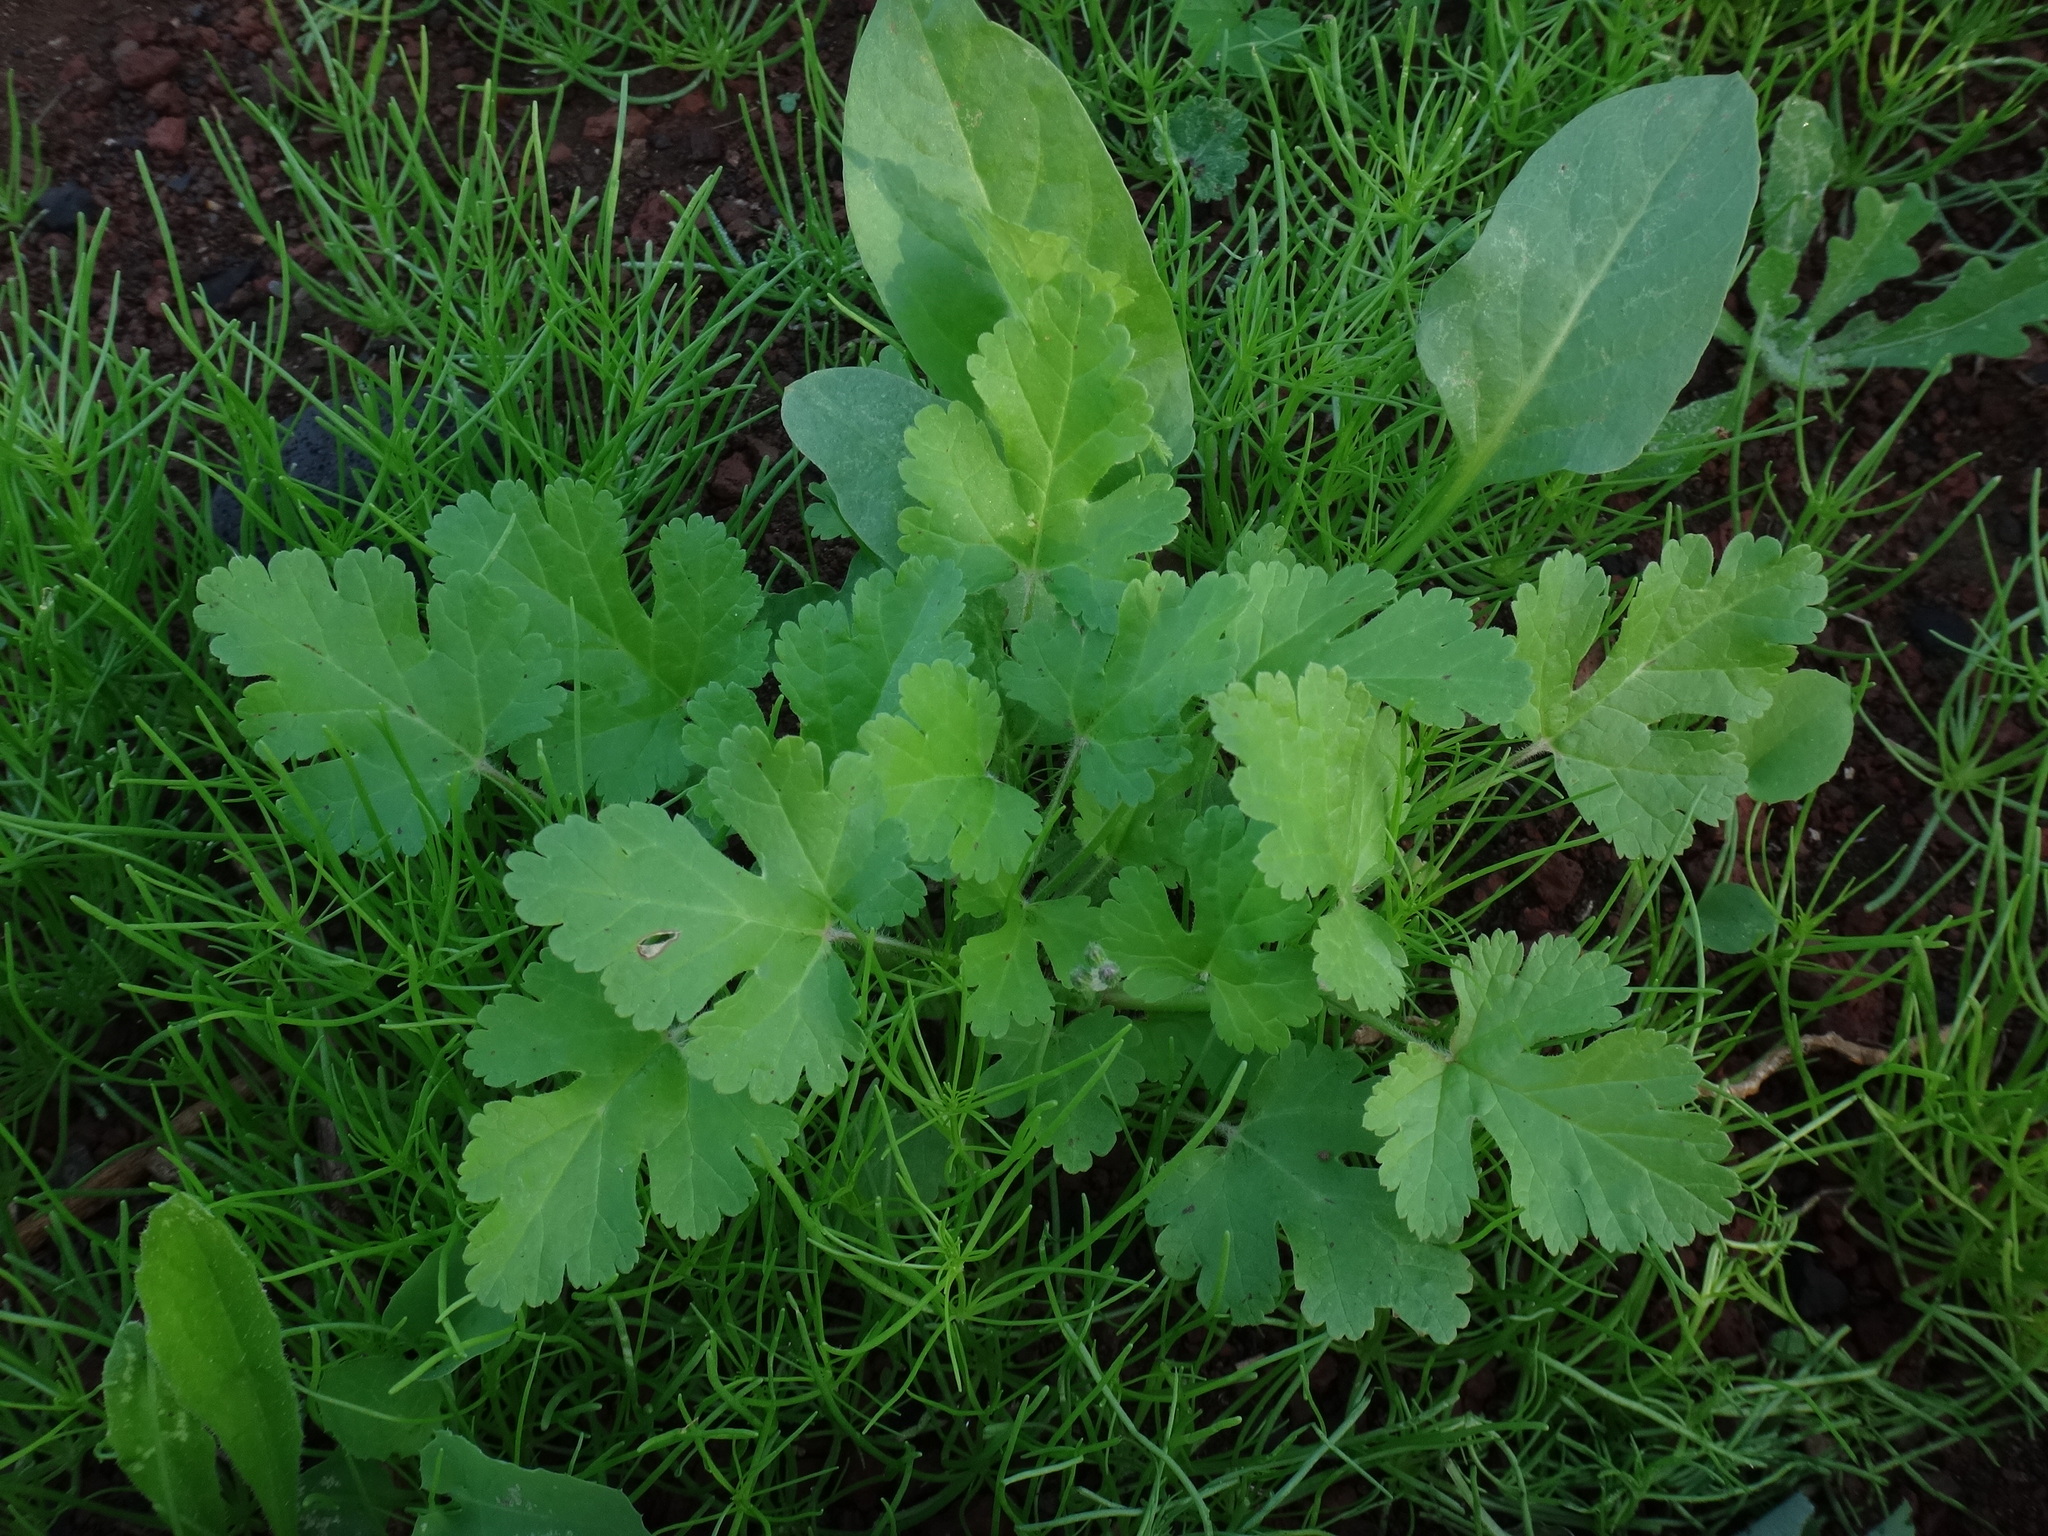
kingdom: Plantae
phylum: Tracheophyta
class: Magnoliopsida
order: Geraniales
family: Geraniaceae
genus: Erodium
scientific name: Erodium malacoides
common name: Soft stork's-bill
